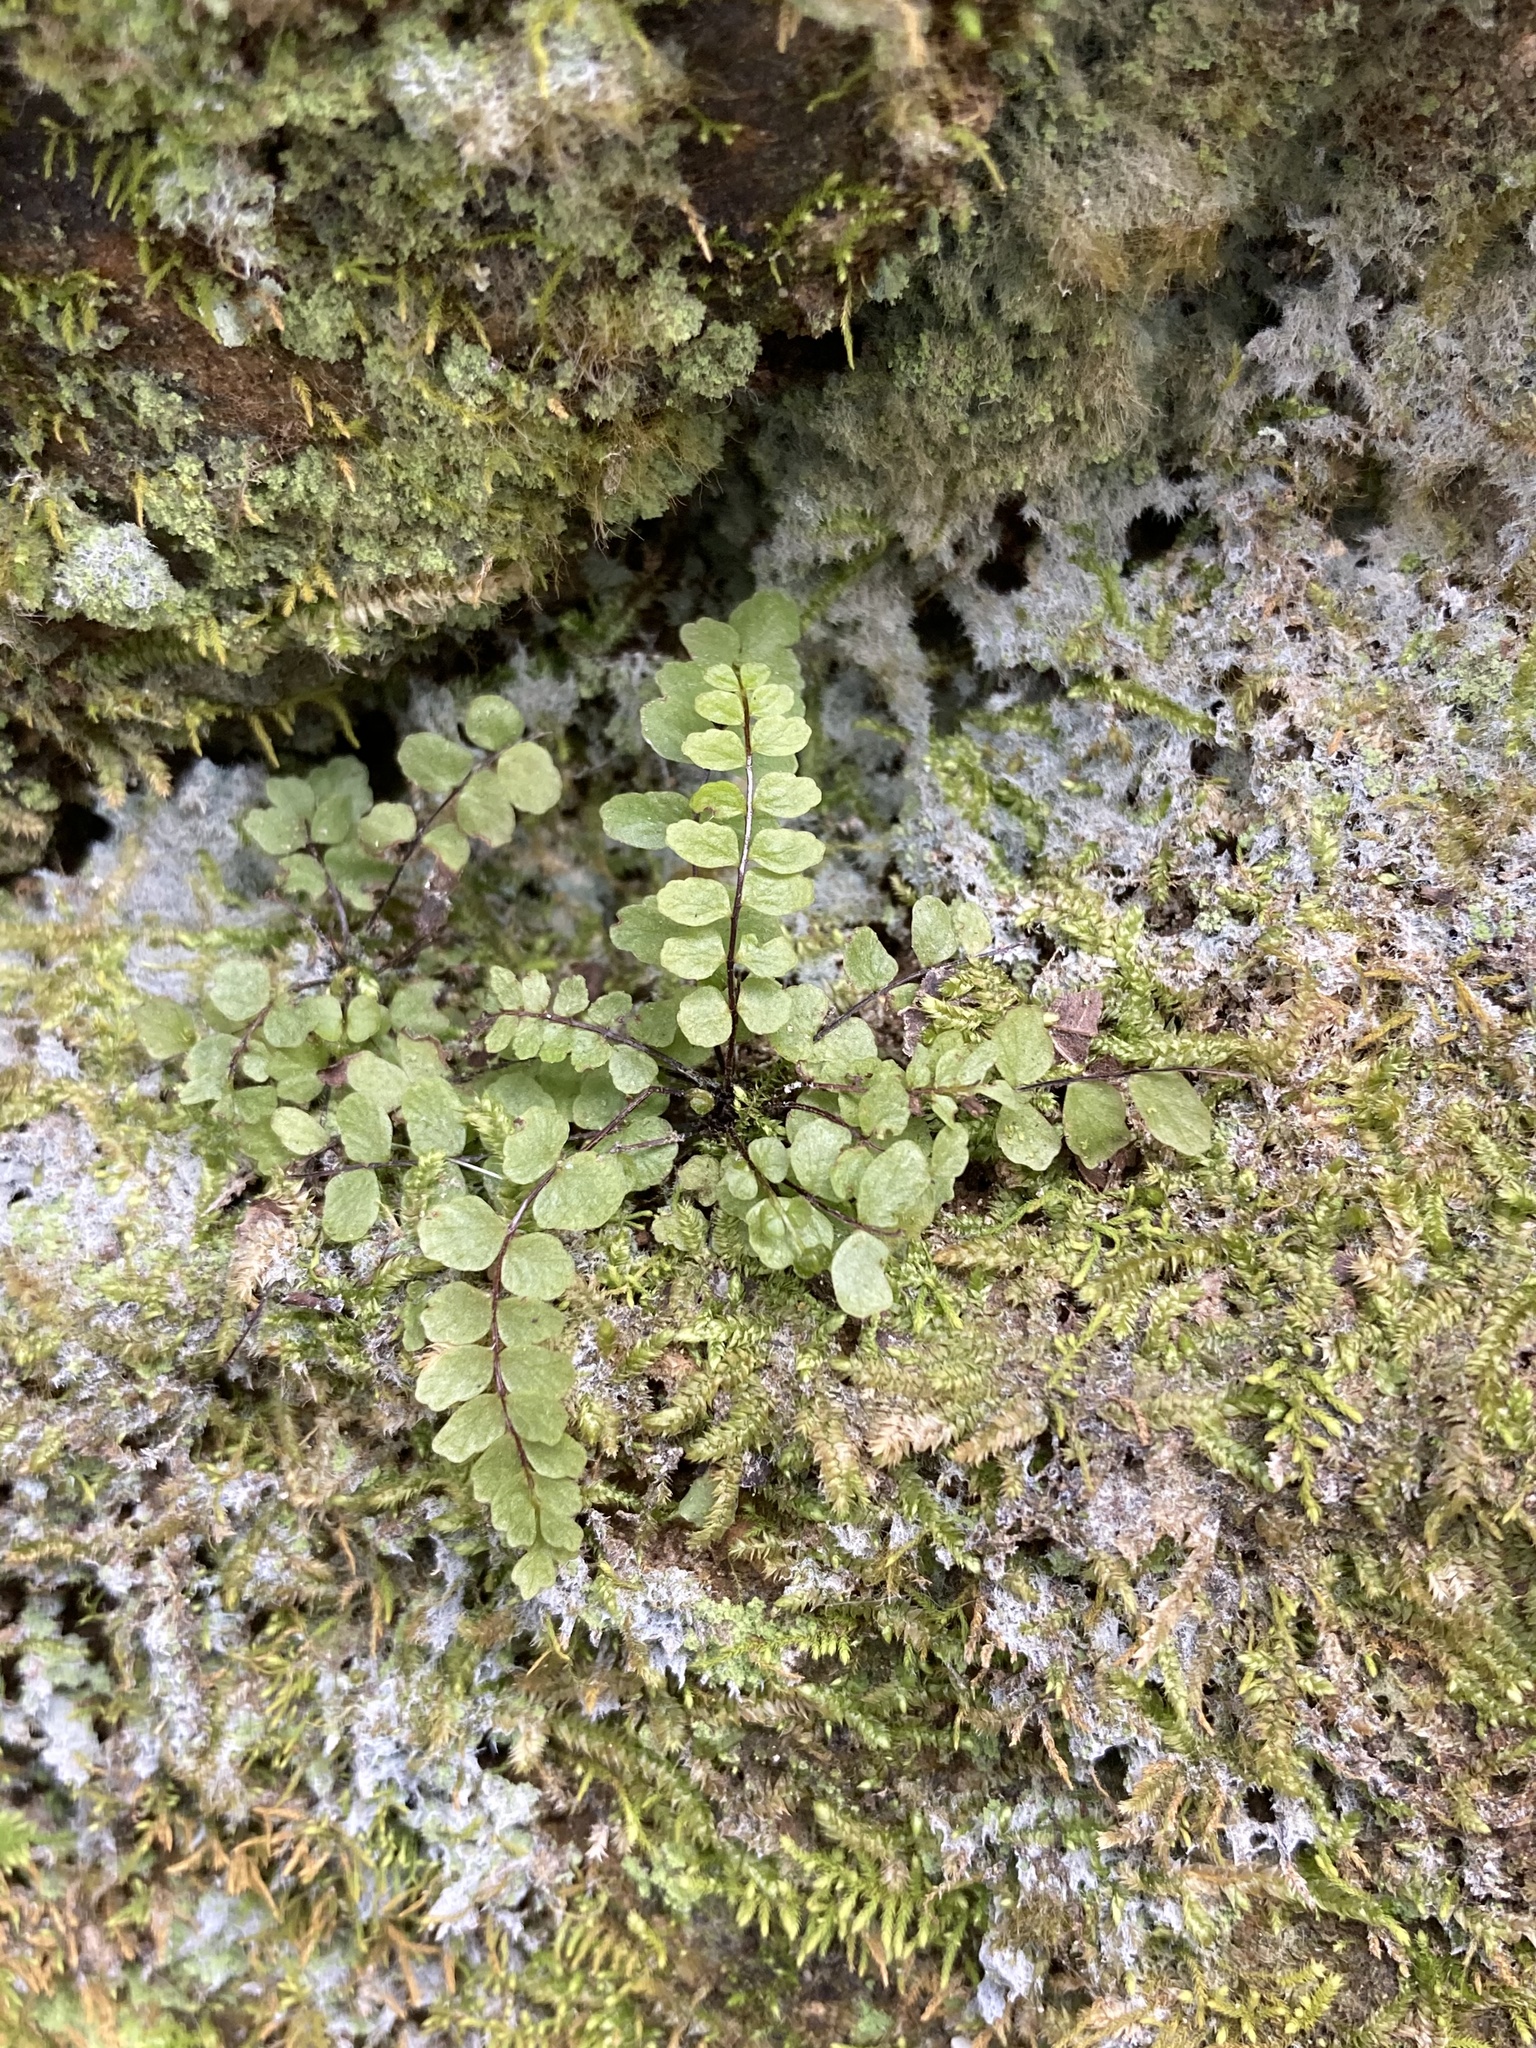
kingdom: Plantae
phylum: Tracheophyta
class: Polypodiopsida
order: Polypodiales
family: Aspleniaceae
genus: Asplenium
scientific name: Asplenium trichomanes
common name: Maidenhair spleenwort
